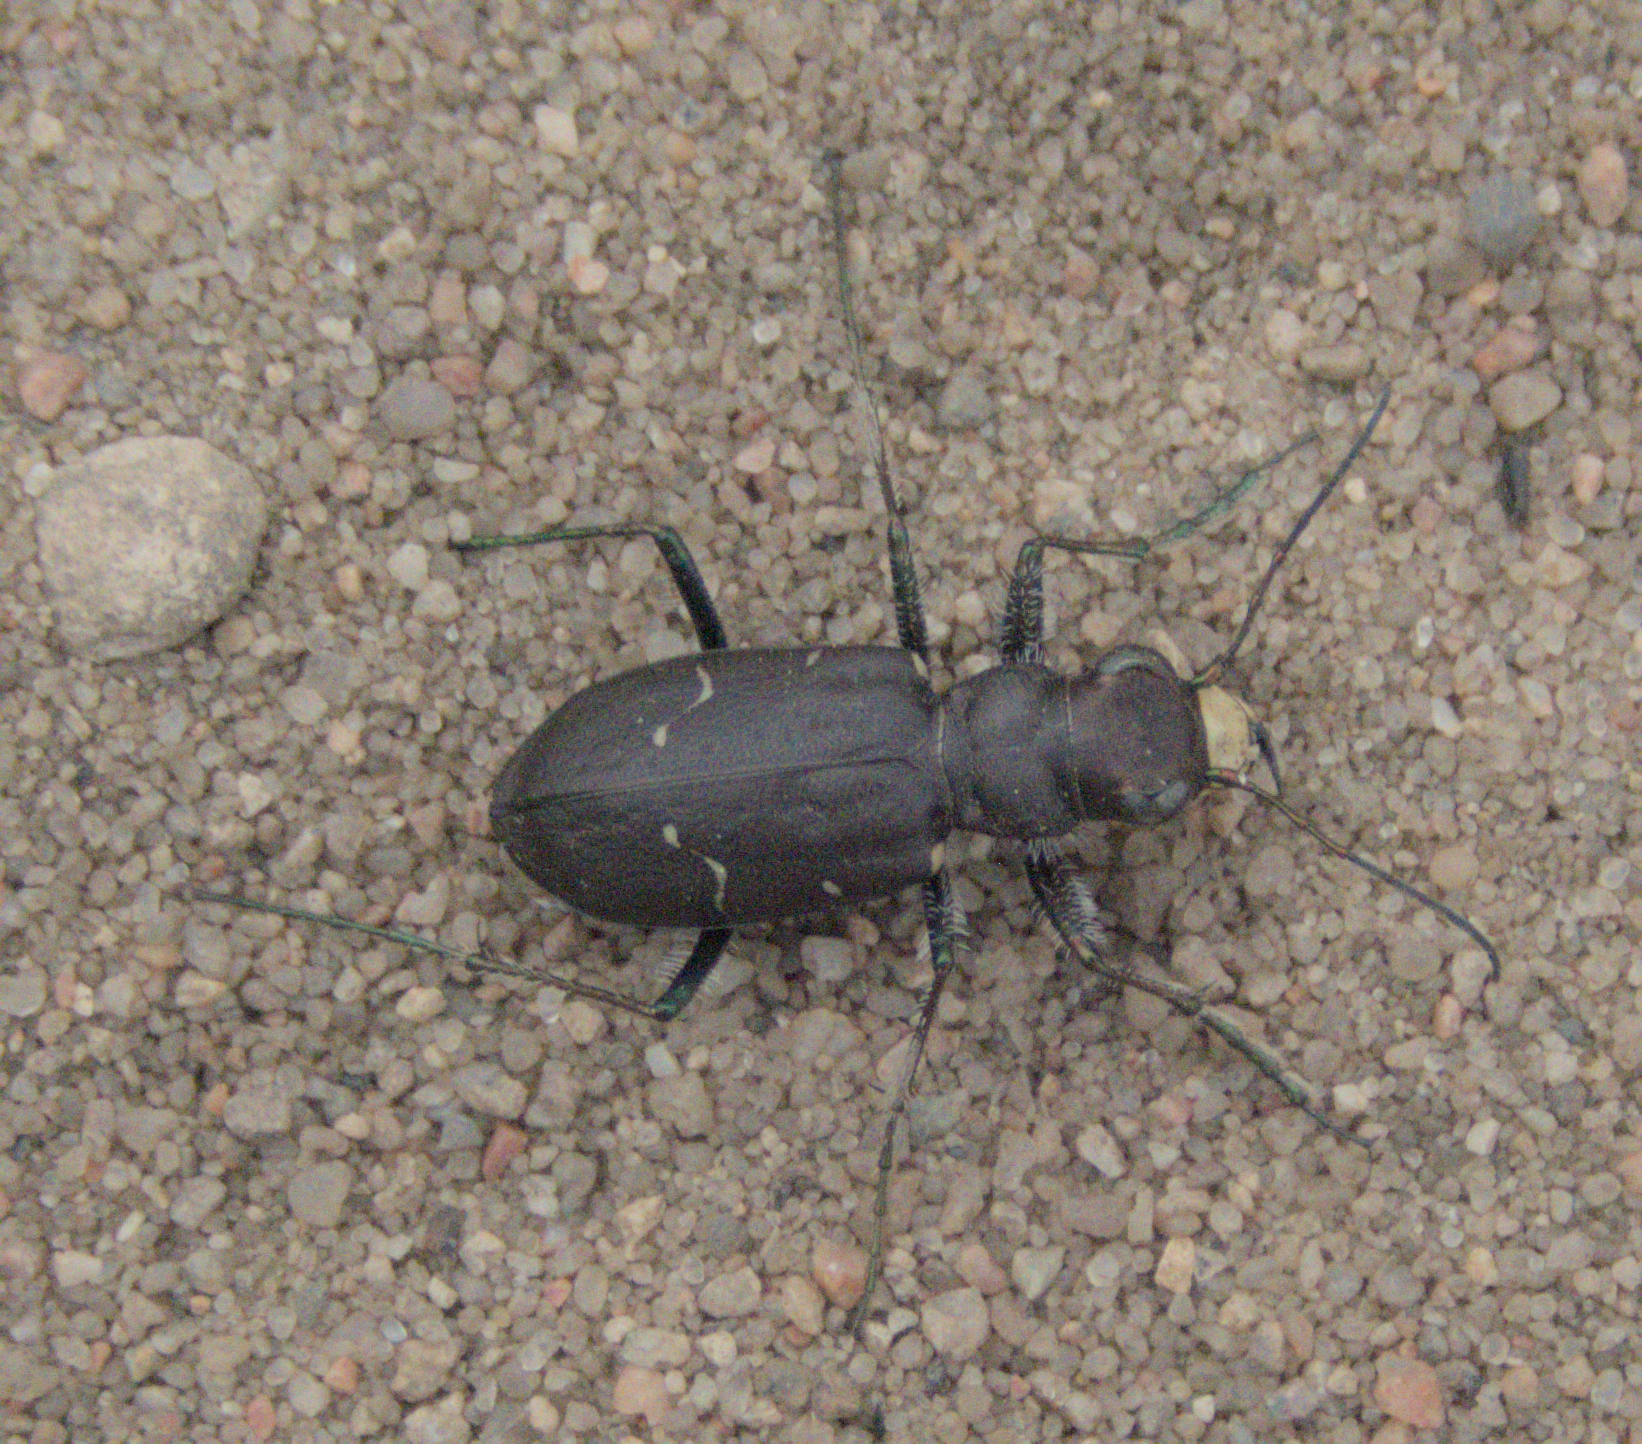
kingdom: Animalia
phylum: Arthropoda
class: Insecta
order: Coleoptera
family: Carabidae
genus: Cicindela
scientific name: Cicindela longilabris
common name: Boreal long-lipped tiger beetle
